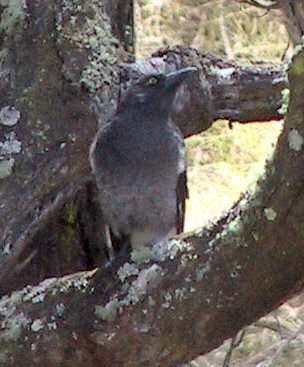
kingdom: Animalia
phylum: Chordata
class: Aves
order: Passeriformes
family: Cracticidae
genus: Strepera
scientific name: Strepera versicolor
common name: Grey currawong
